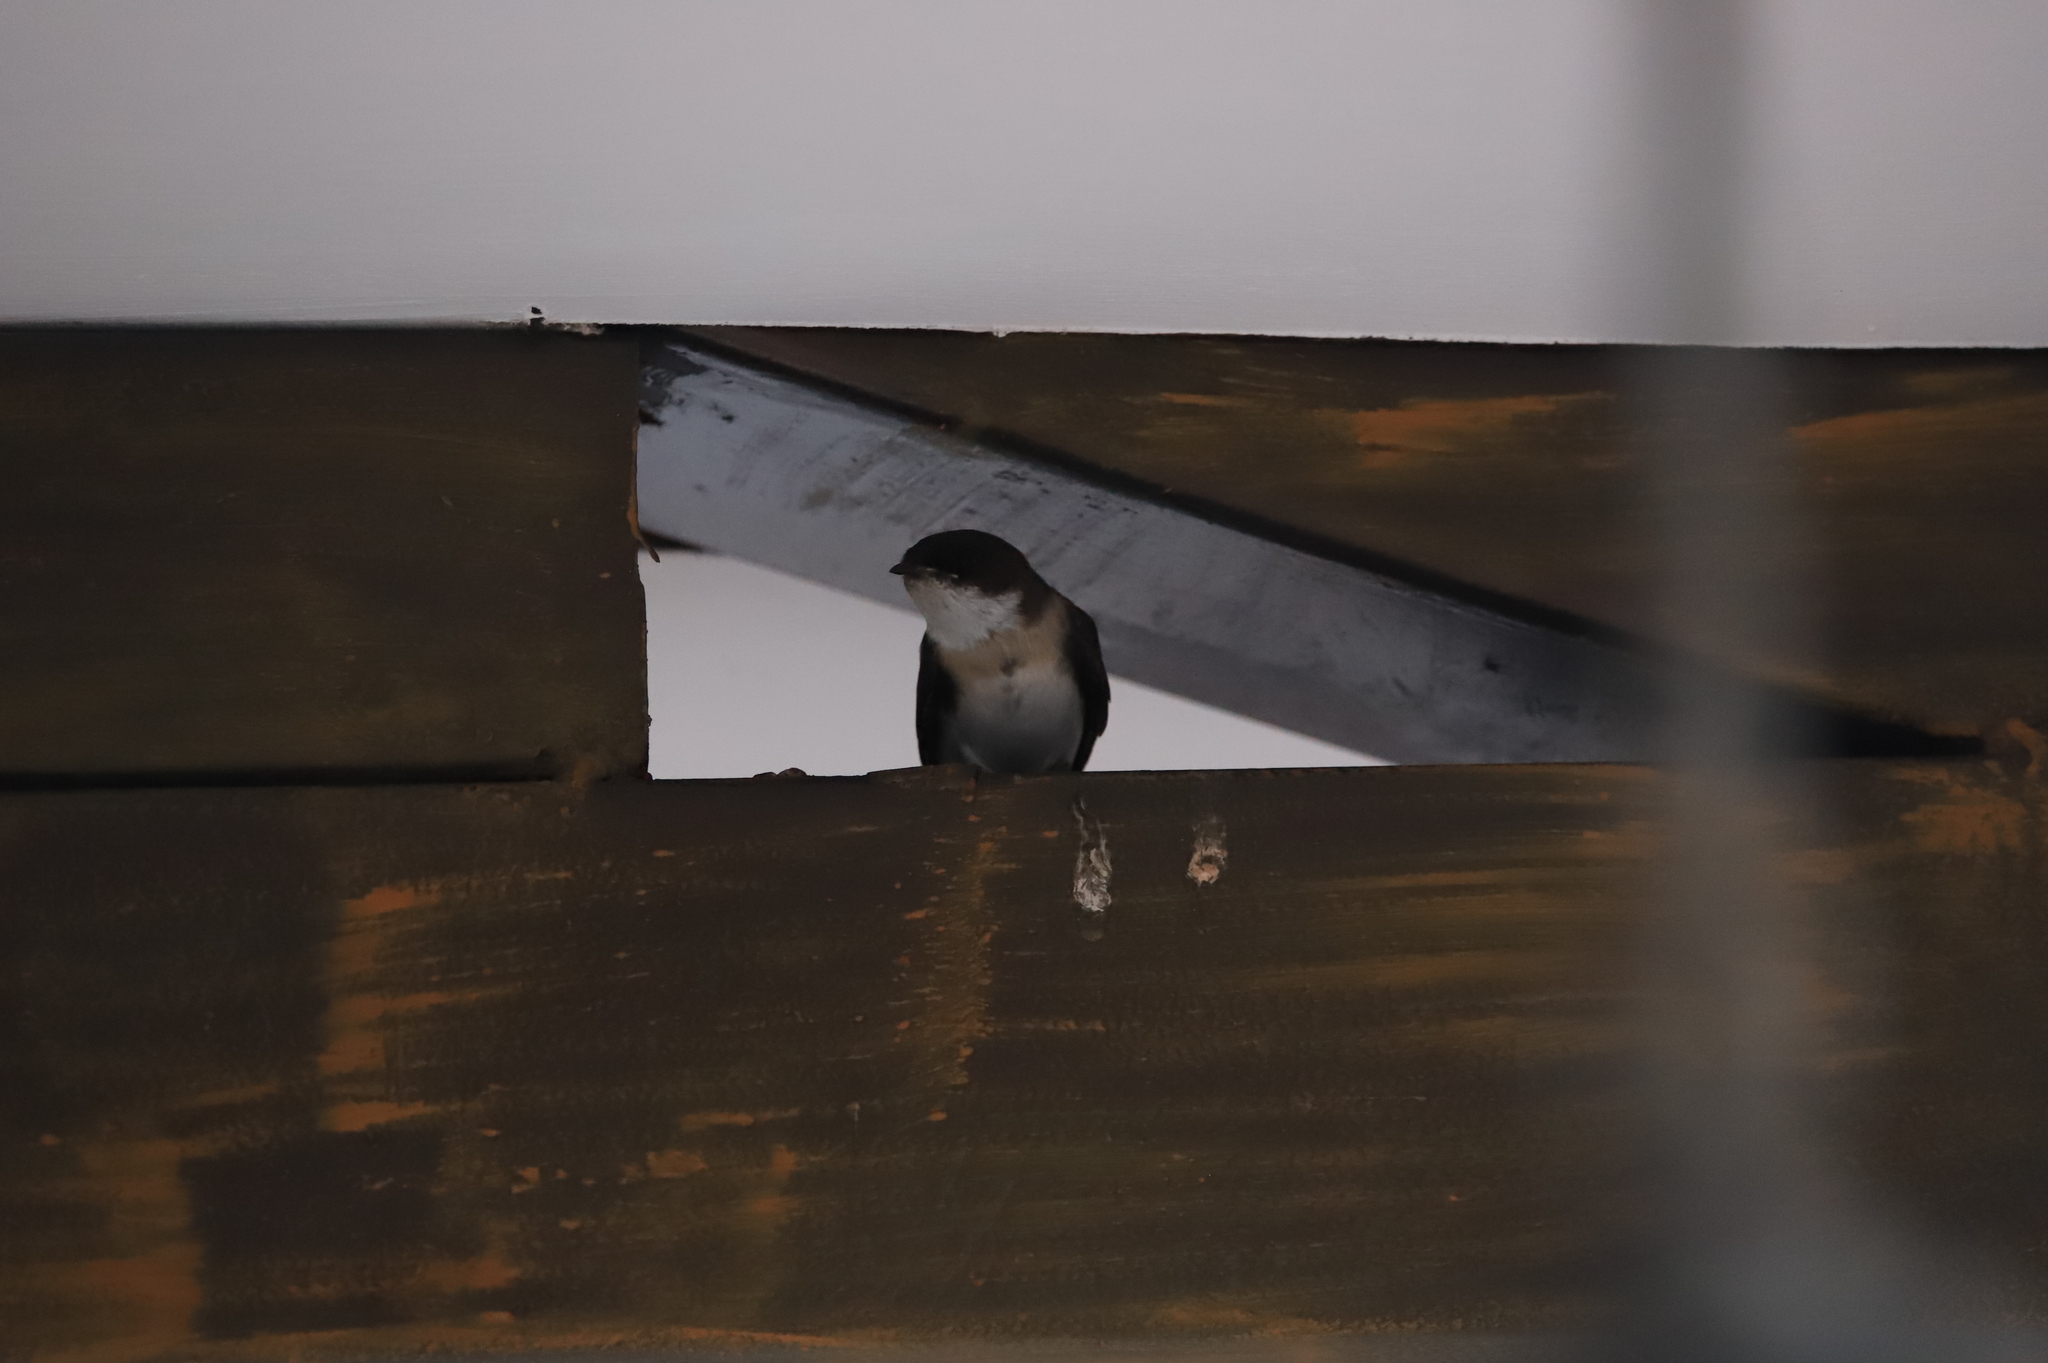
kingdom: Animalia
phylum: Chordata
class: Aves
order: Passeriformes
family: Hirundinidae
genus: Notiochelidon
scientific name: Notiochelidon cyanoleuca
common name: Blue-and-white swallow
